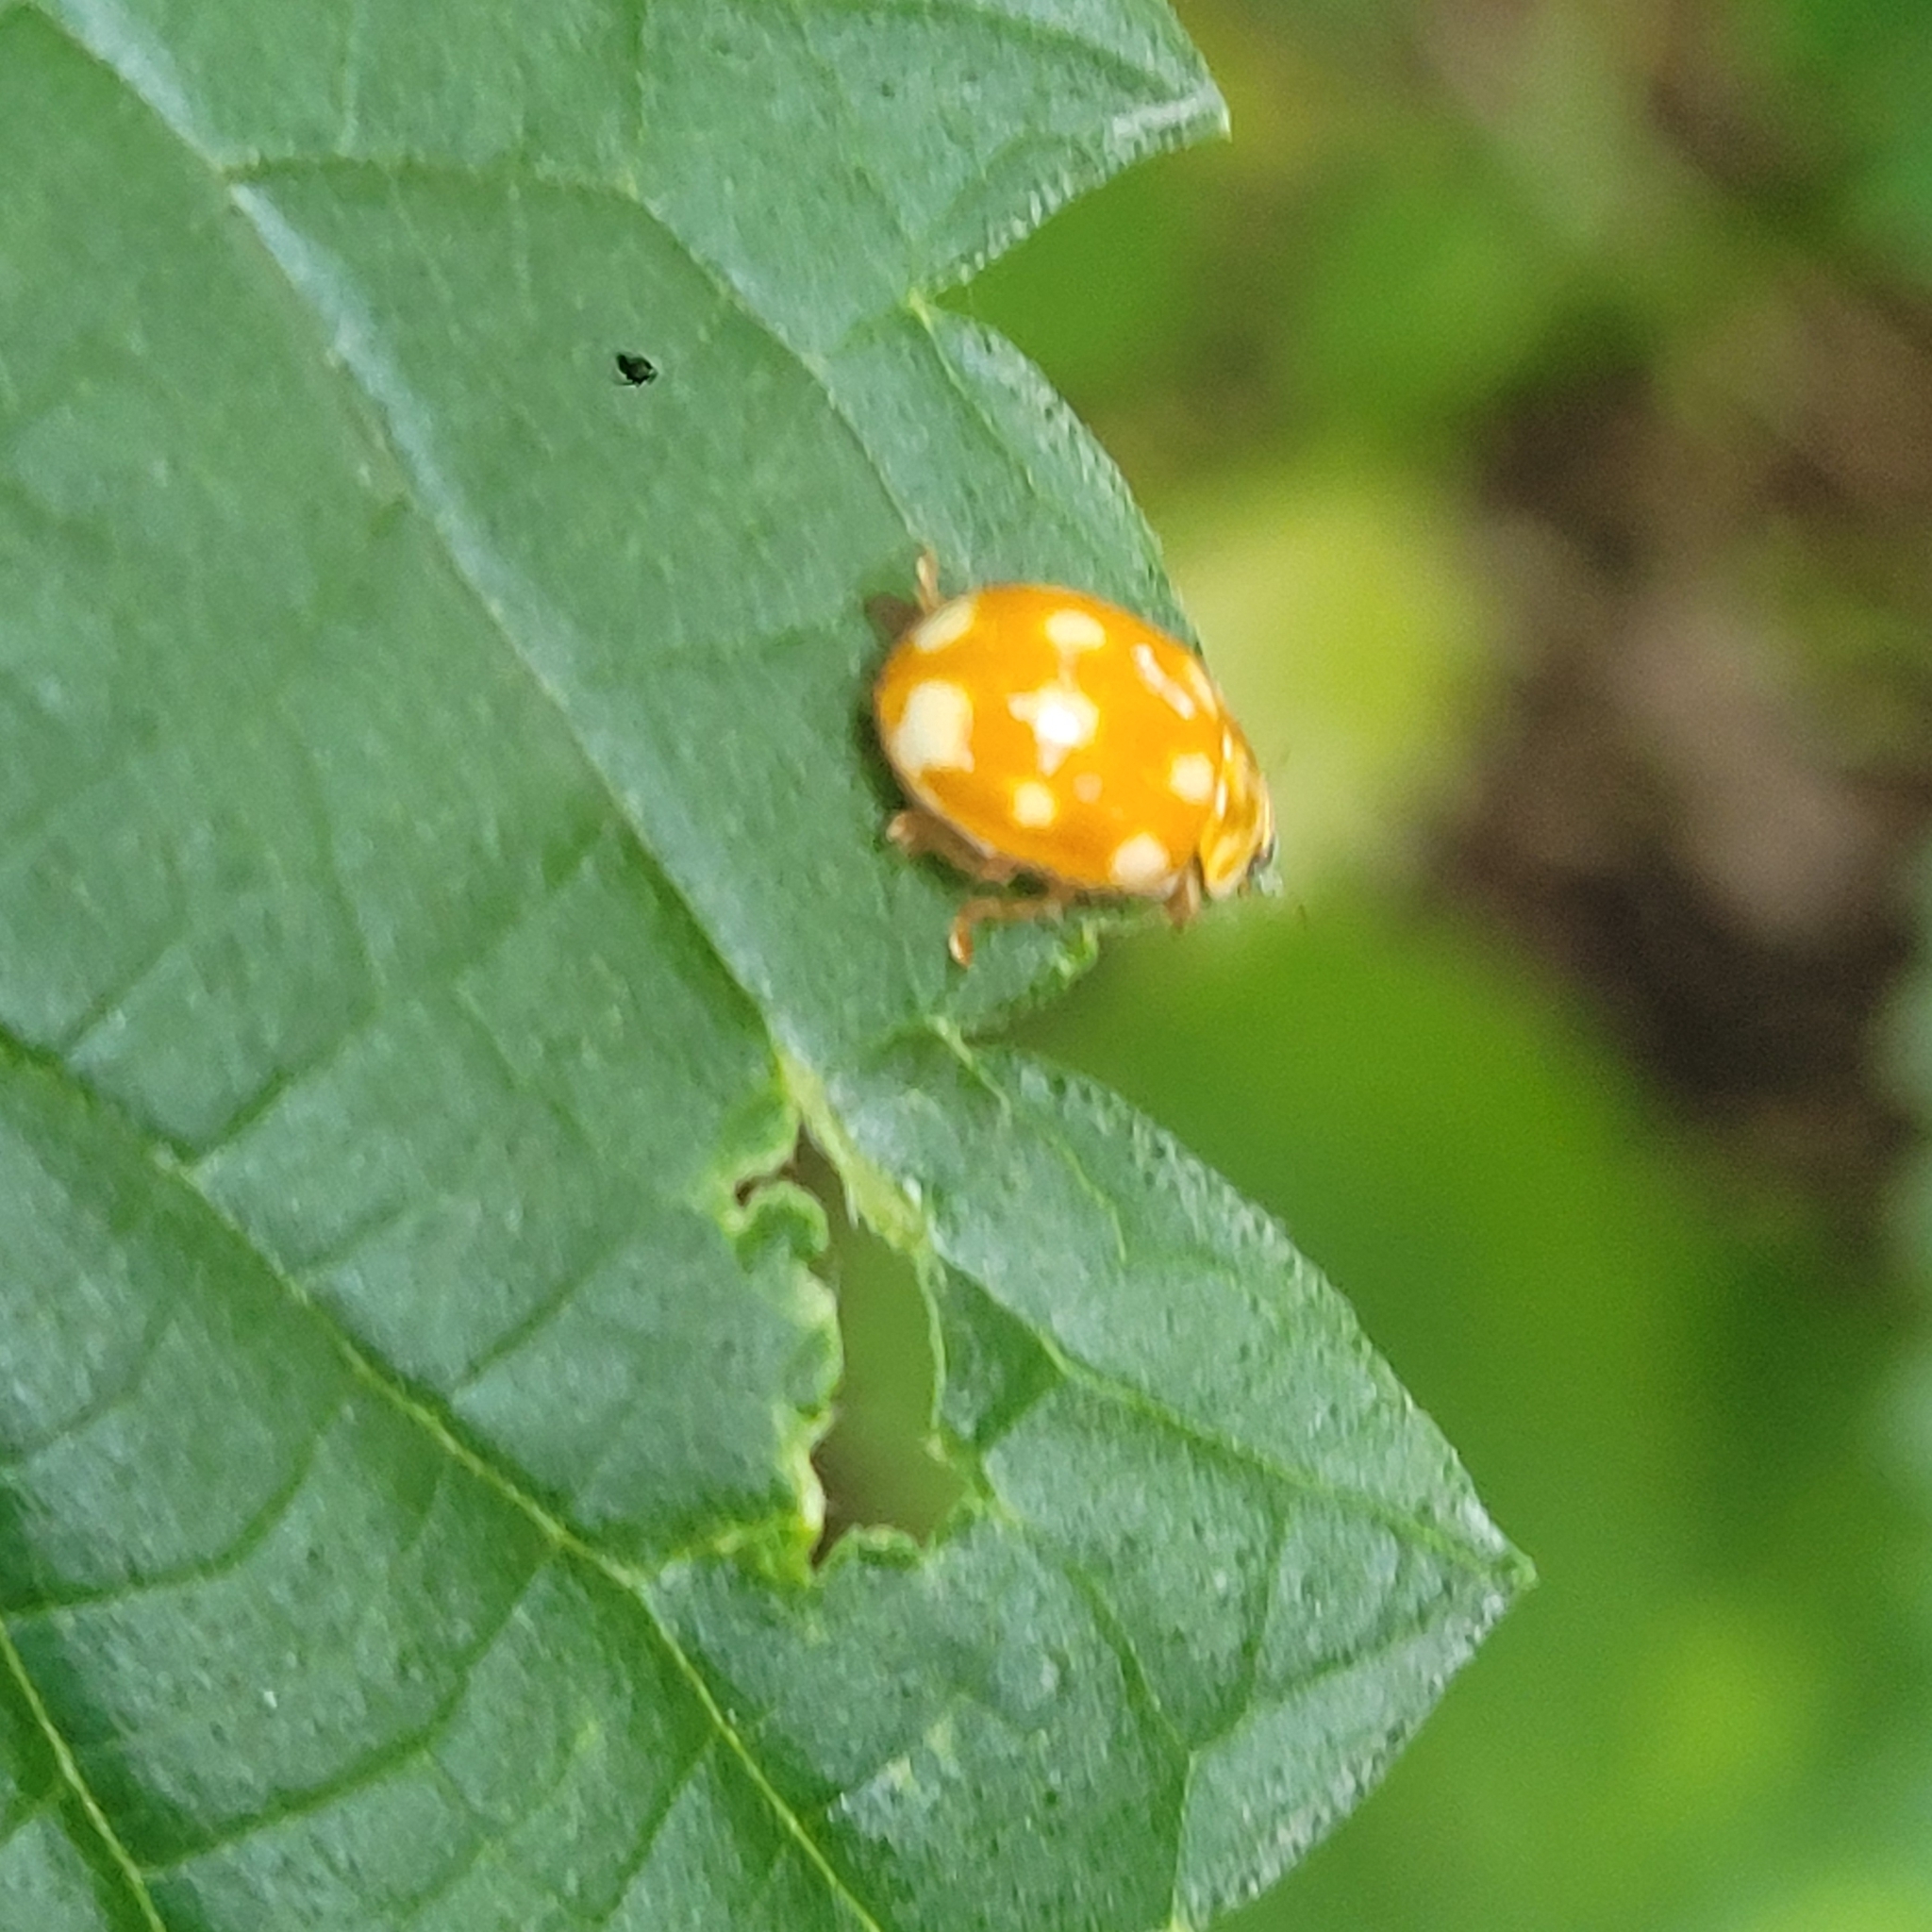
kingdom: Animalia
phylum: Arthropoda
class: Insecta
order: Coleoptera
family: Coccinellidae
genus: Calvia
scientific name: Calvia decemguttata
